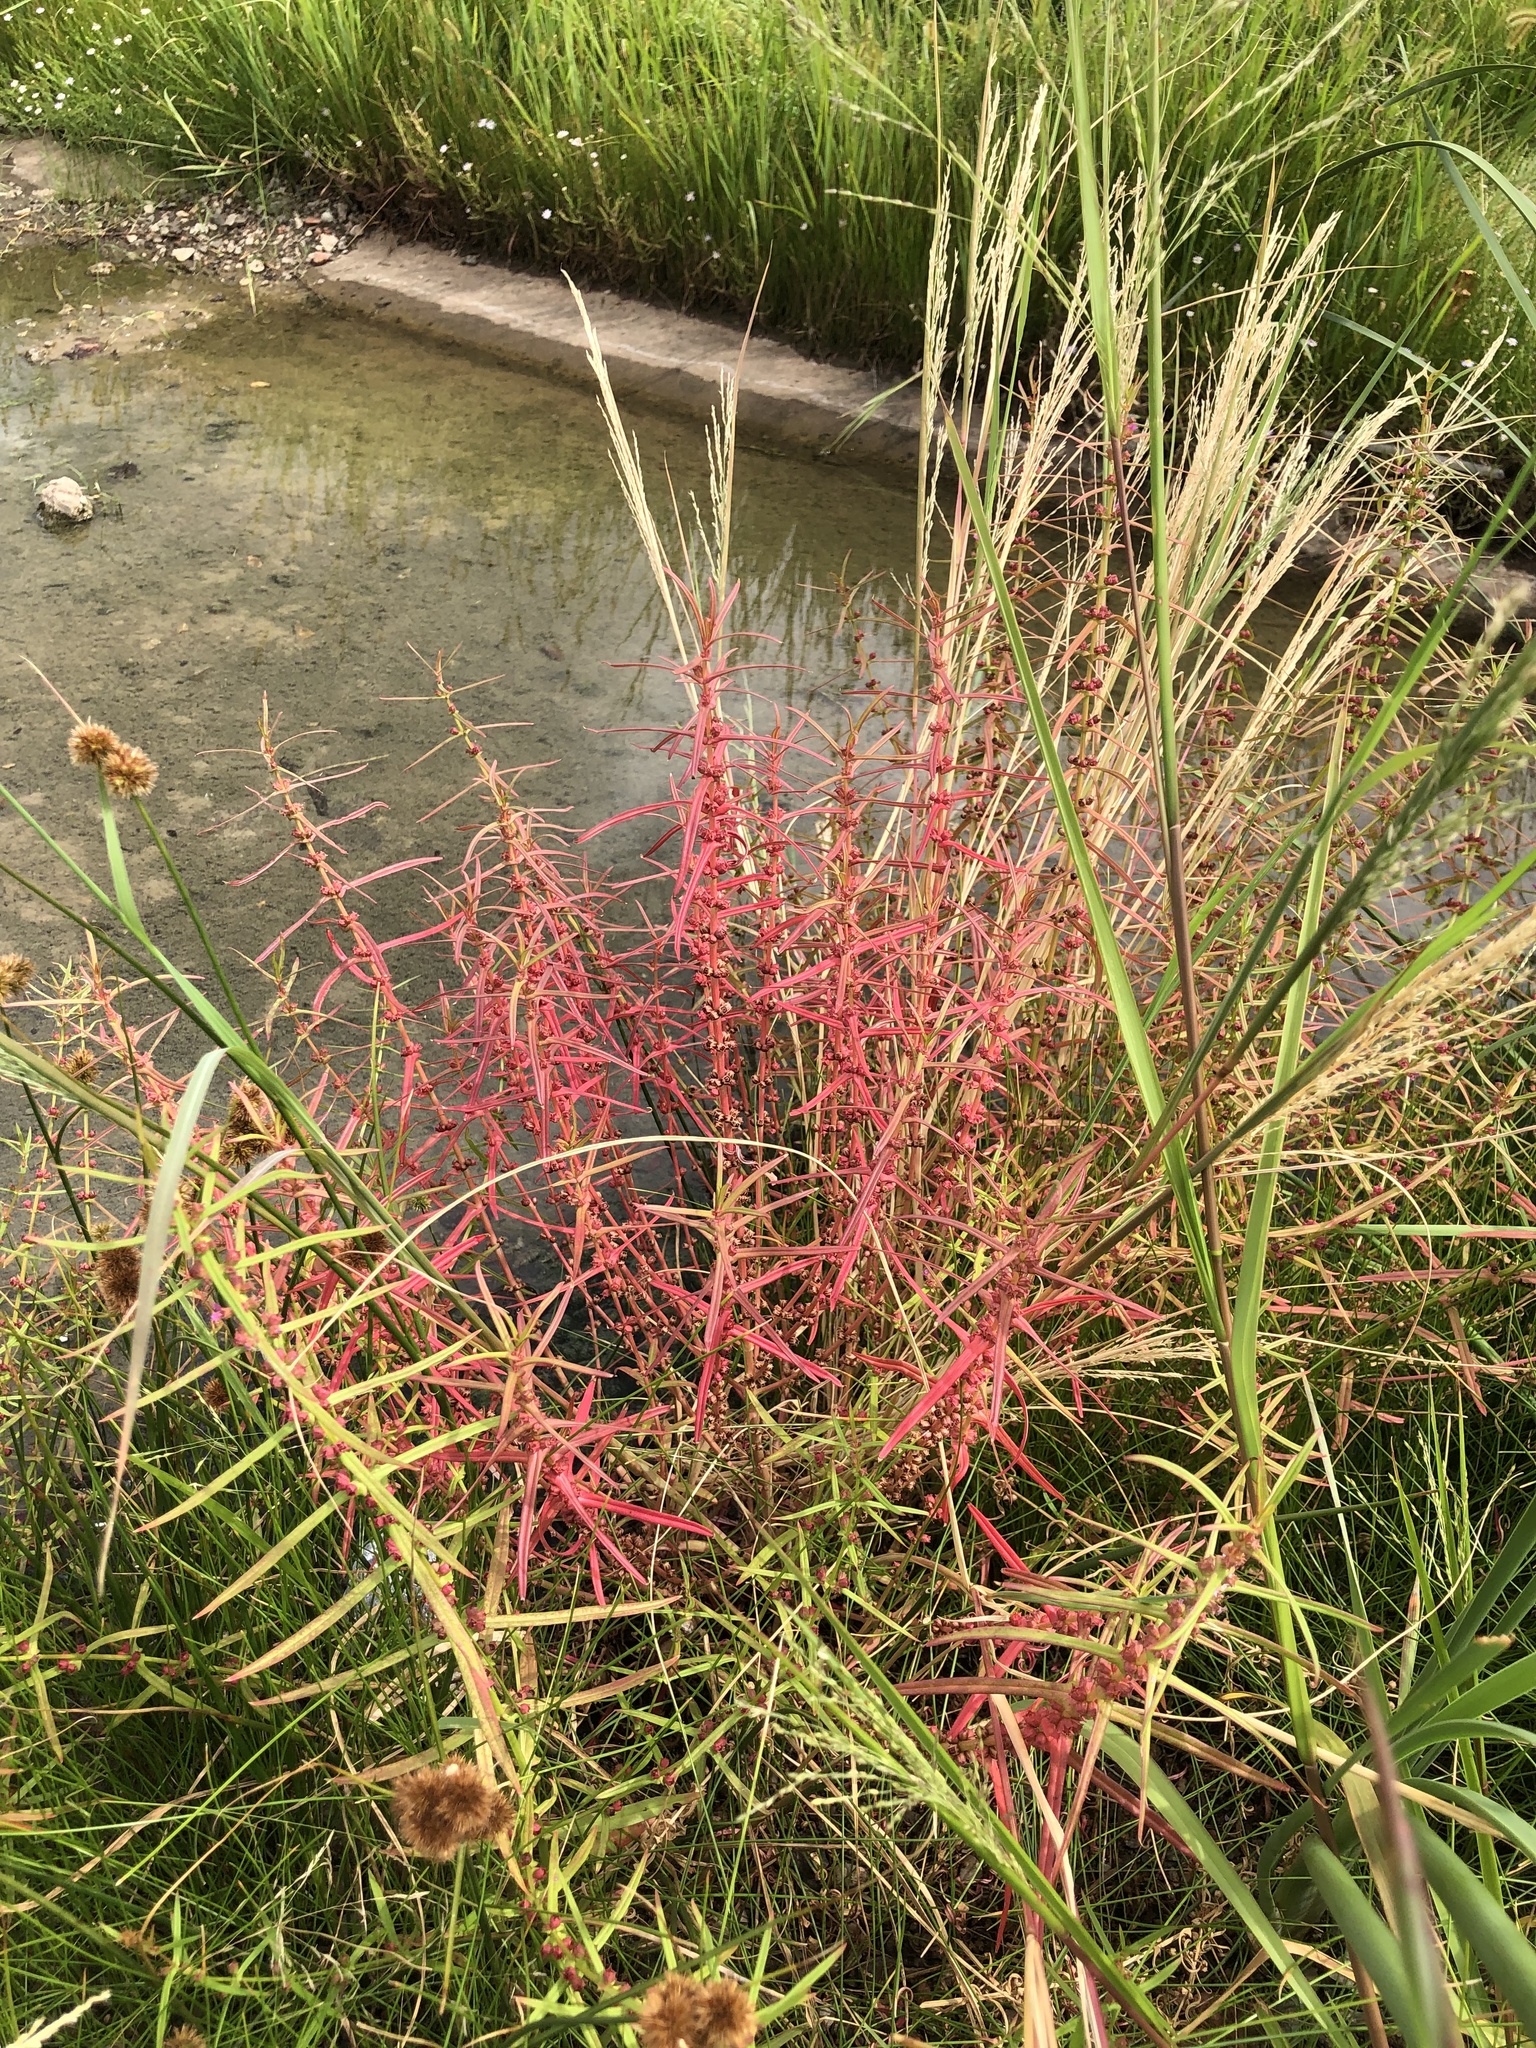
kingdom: Plantae
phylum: Tracheophyta
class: Magnoliopsida
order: Myrtales
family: Lythraceae
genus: Ammannia
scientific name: Ammannia coccinea
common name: Valley redstem
